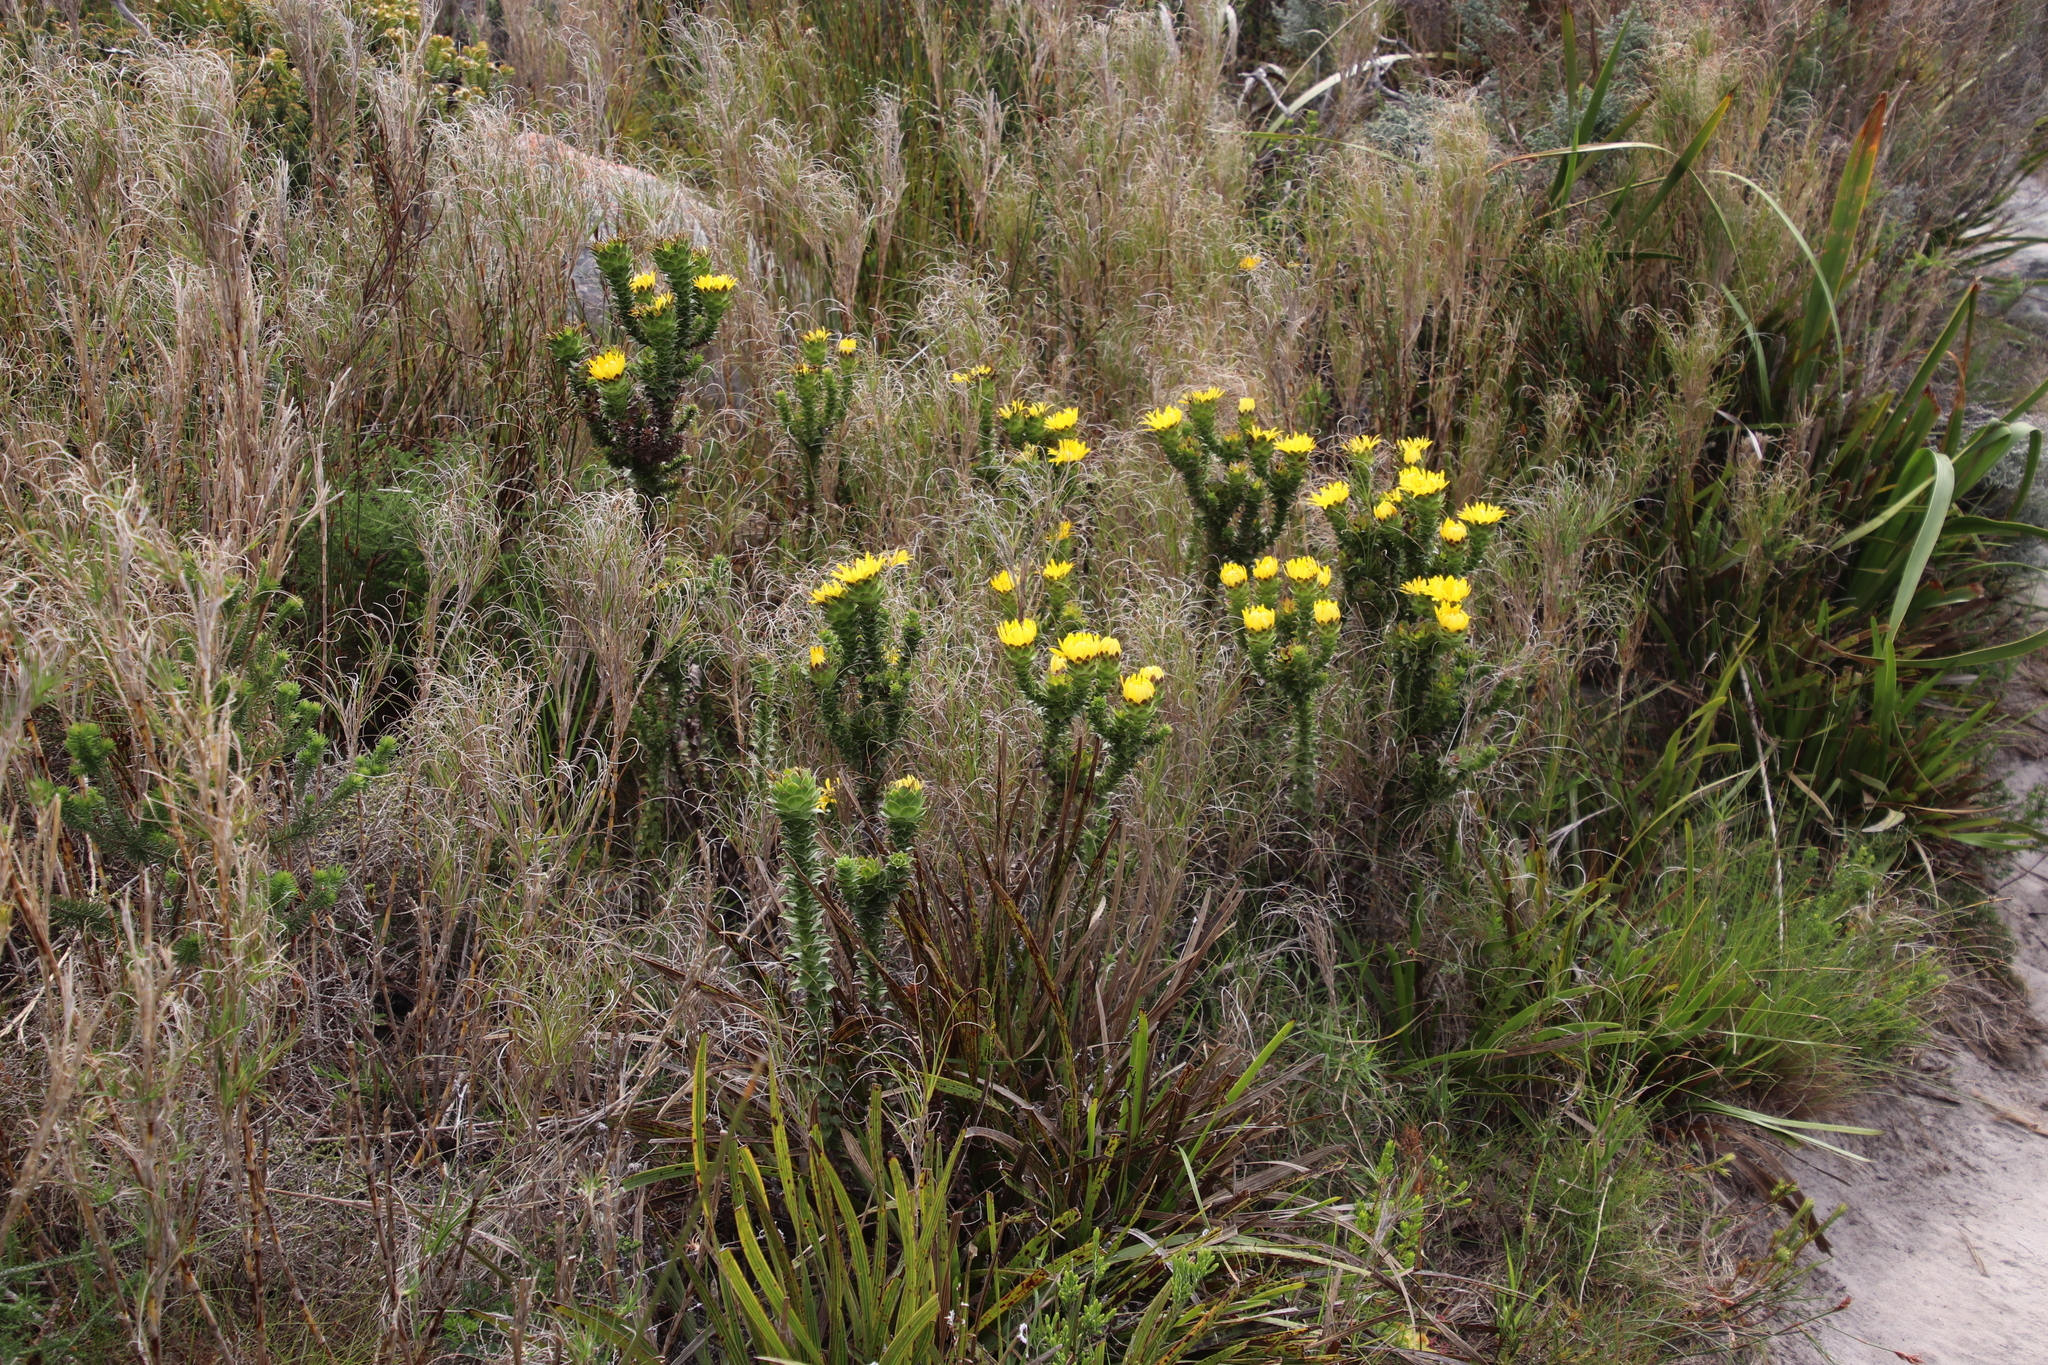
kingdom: Plantae
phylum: Tracheophyta
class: Magnoliopsida
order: Asterales
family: Asteraceae
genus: Oedera
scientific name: Oedera imbricata
